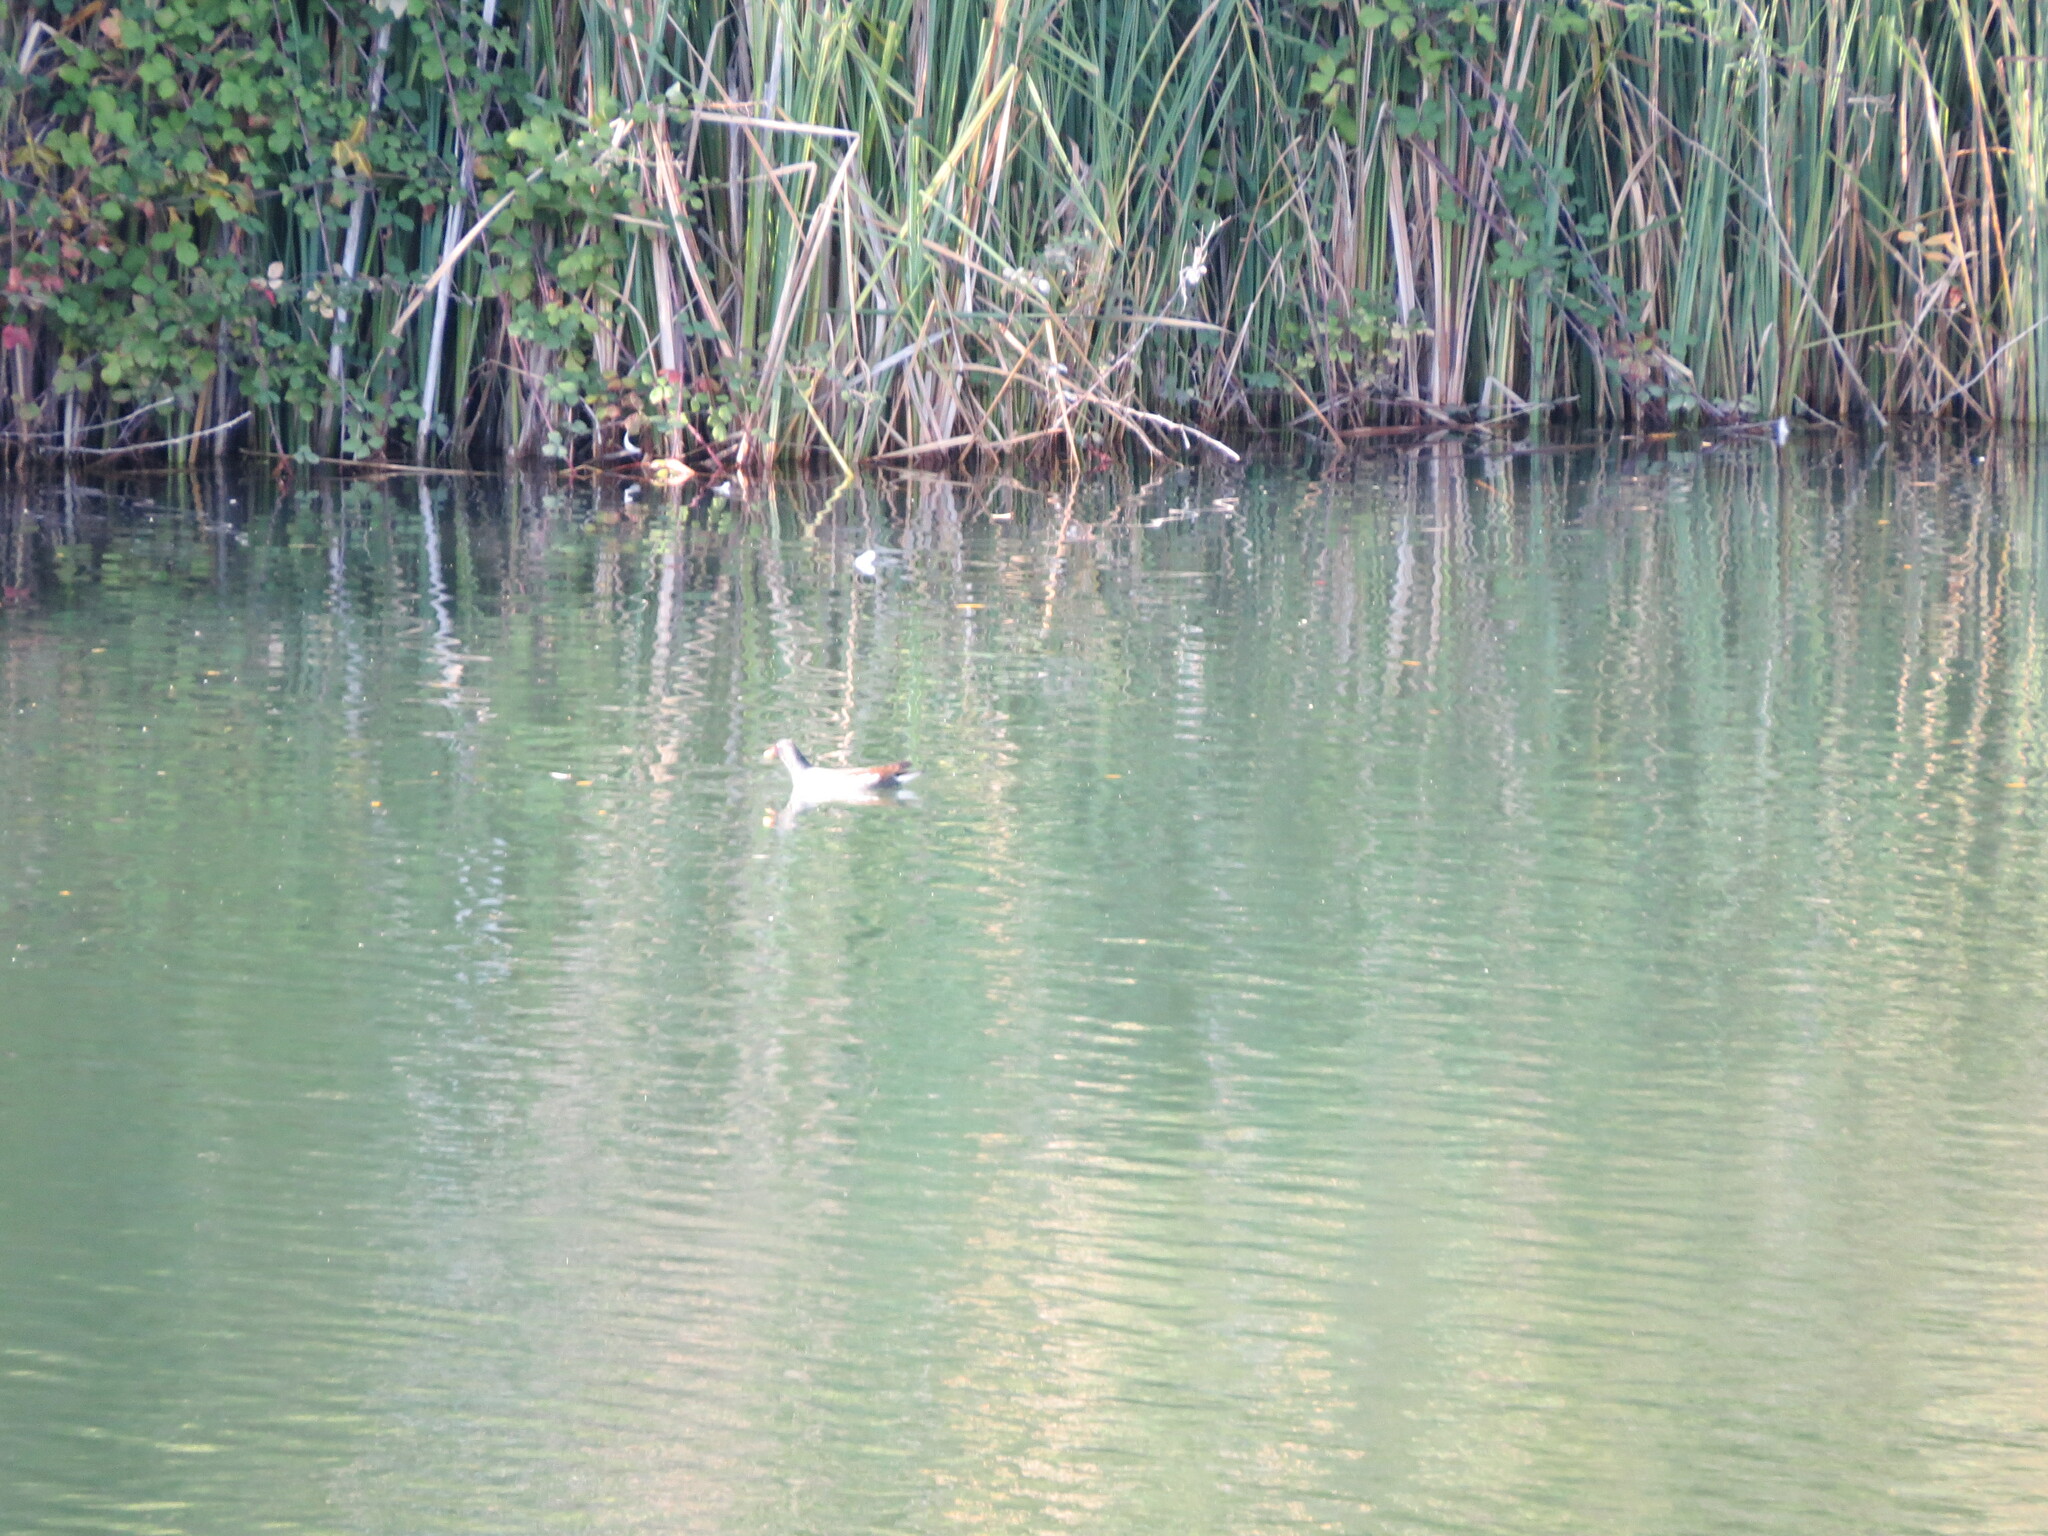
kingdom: Animalia
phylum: Chordata
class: Aves
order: Gruiformes
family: Rallidae
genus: Gallinula
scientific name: Gallinula chloropus
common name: Common moorhen
